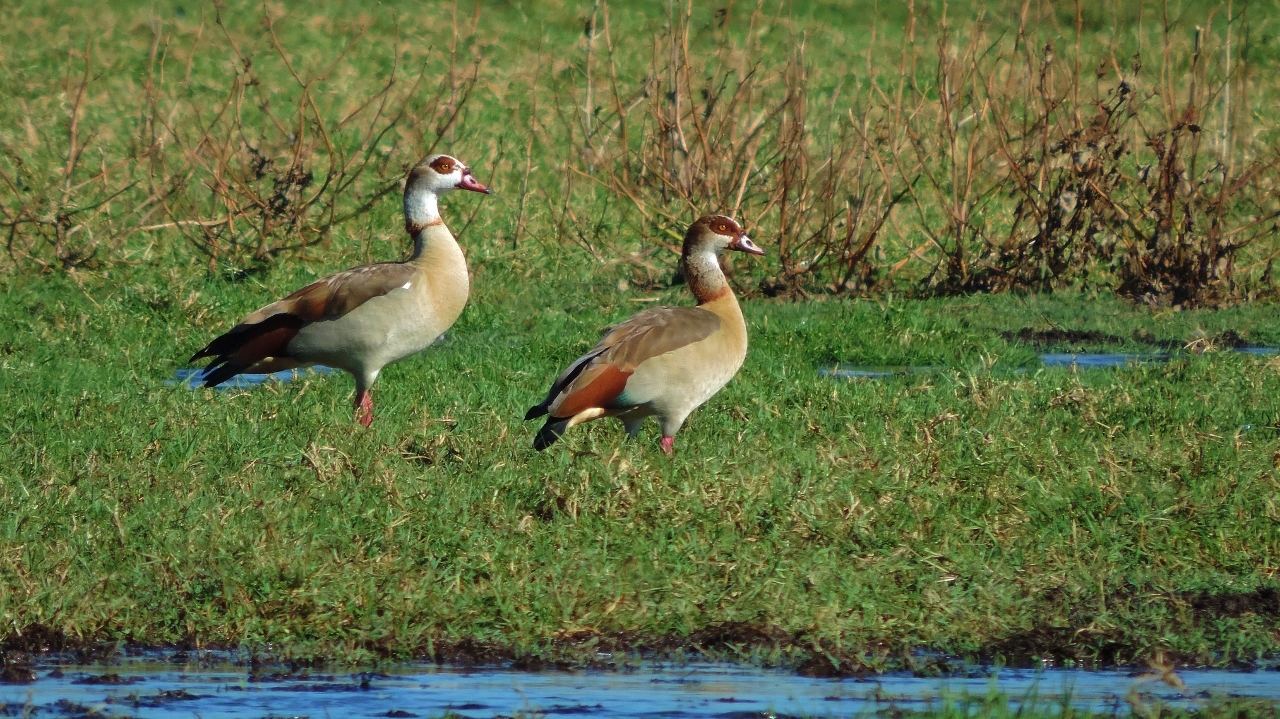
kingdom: Animalia
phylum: Chordata
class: Aves
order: Anseriformes
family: Anatidae
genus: Alopochen
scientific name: Alopochen aegyptiaca
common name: Egyptian goose
